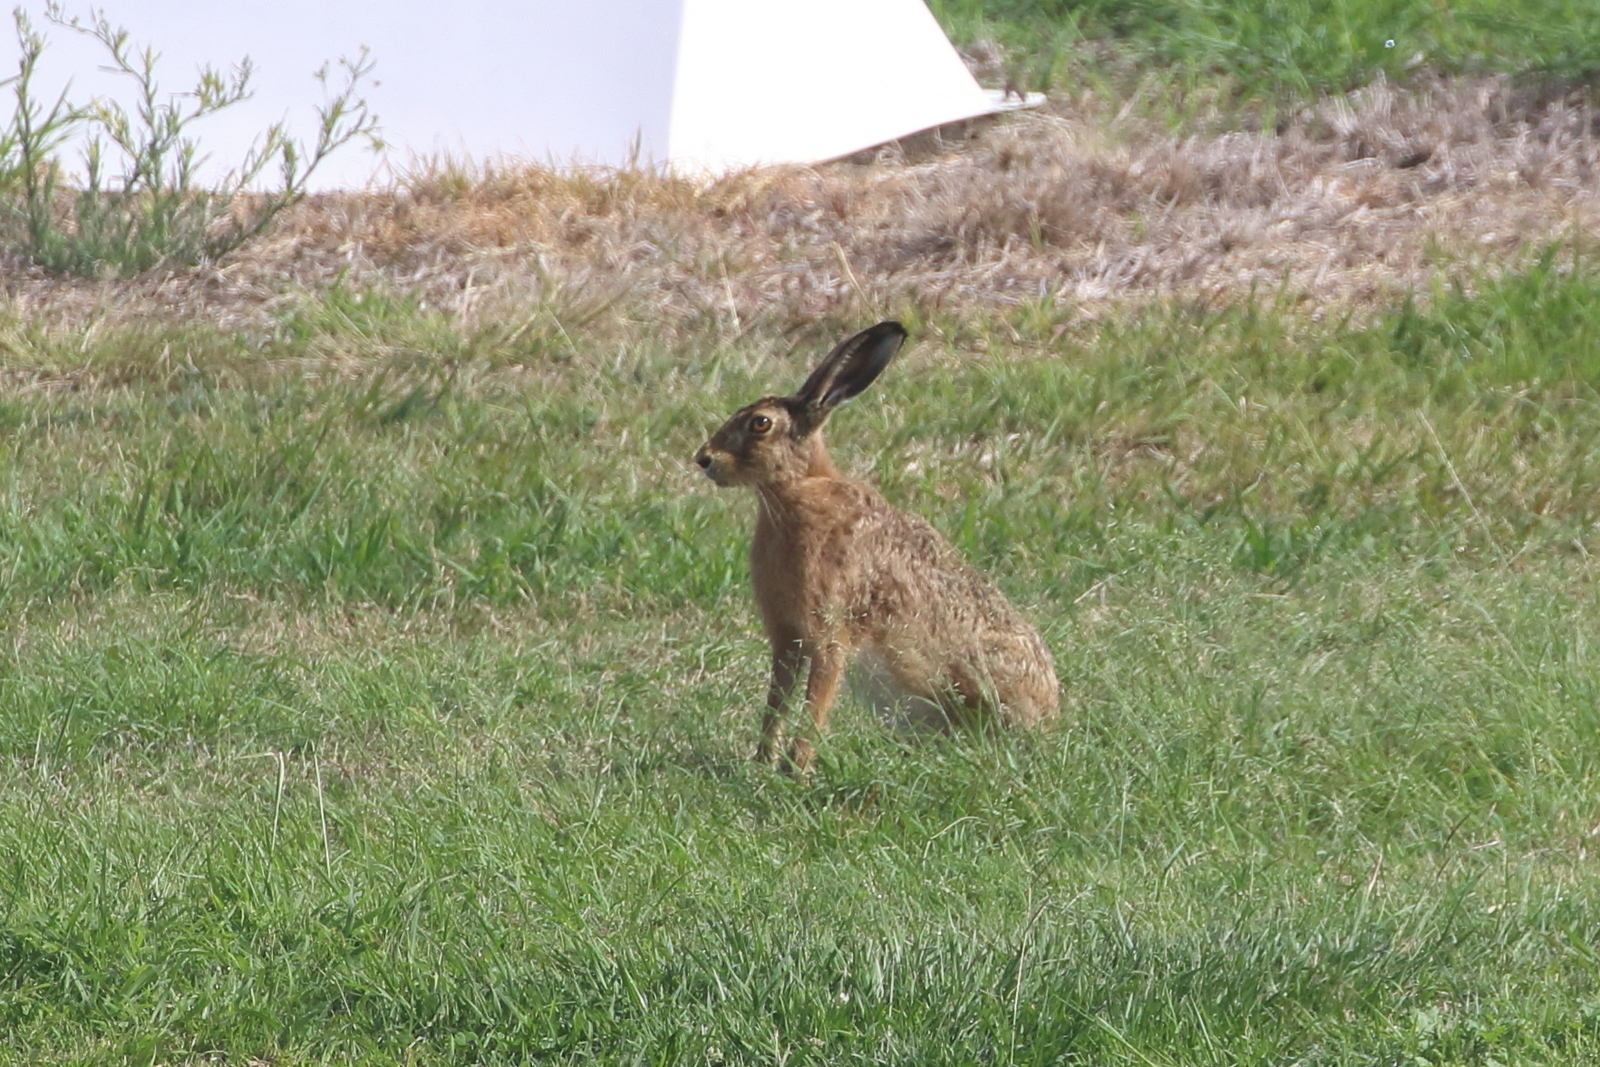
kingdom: Animalia
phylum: Chordata
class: Mammalia
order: Lagomorpha
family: Leporidae
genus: Lepus
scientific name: Lepus europaeus
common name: European hare
